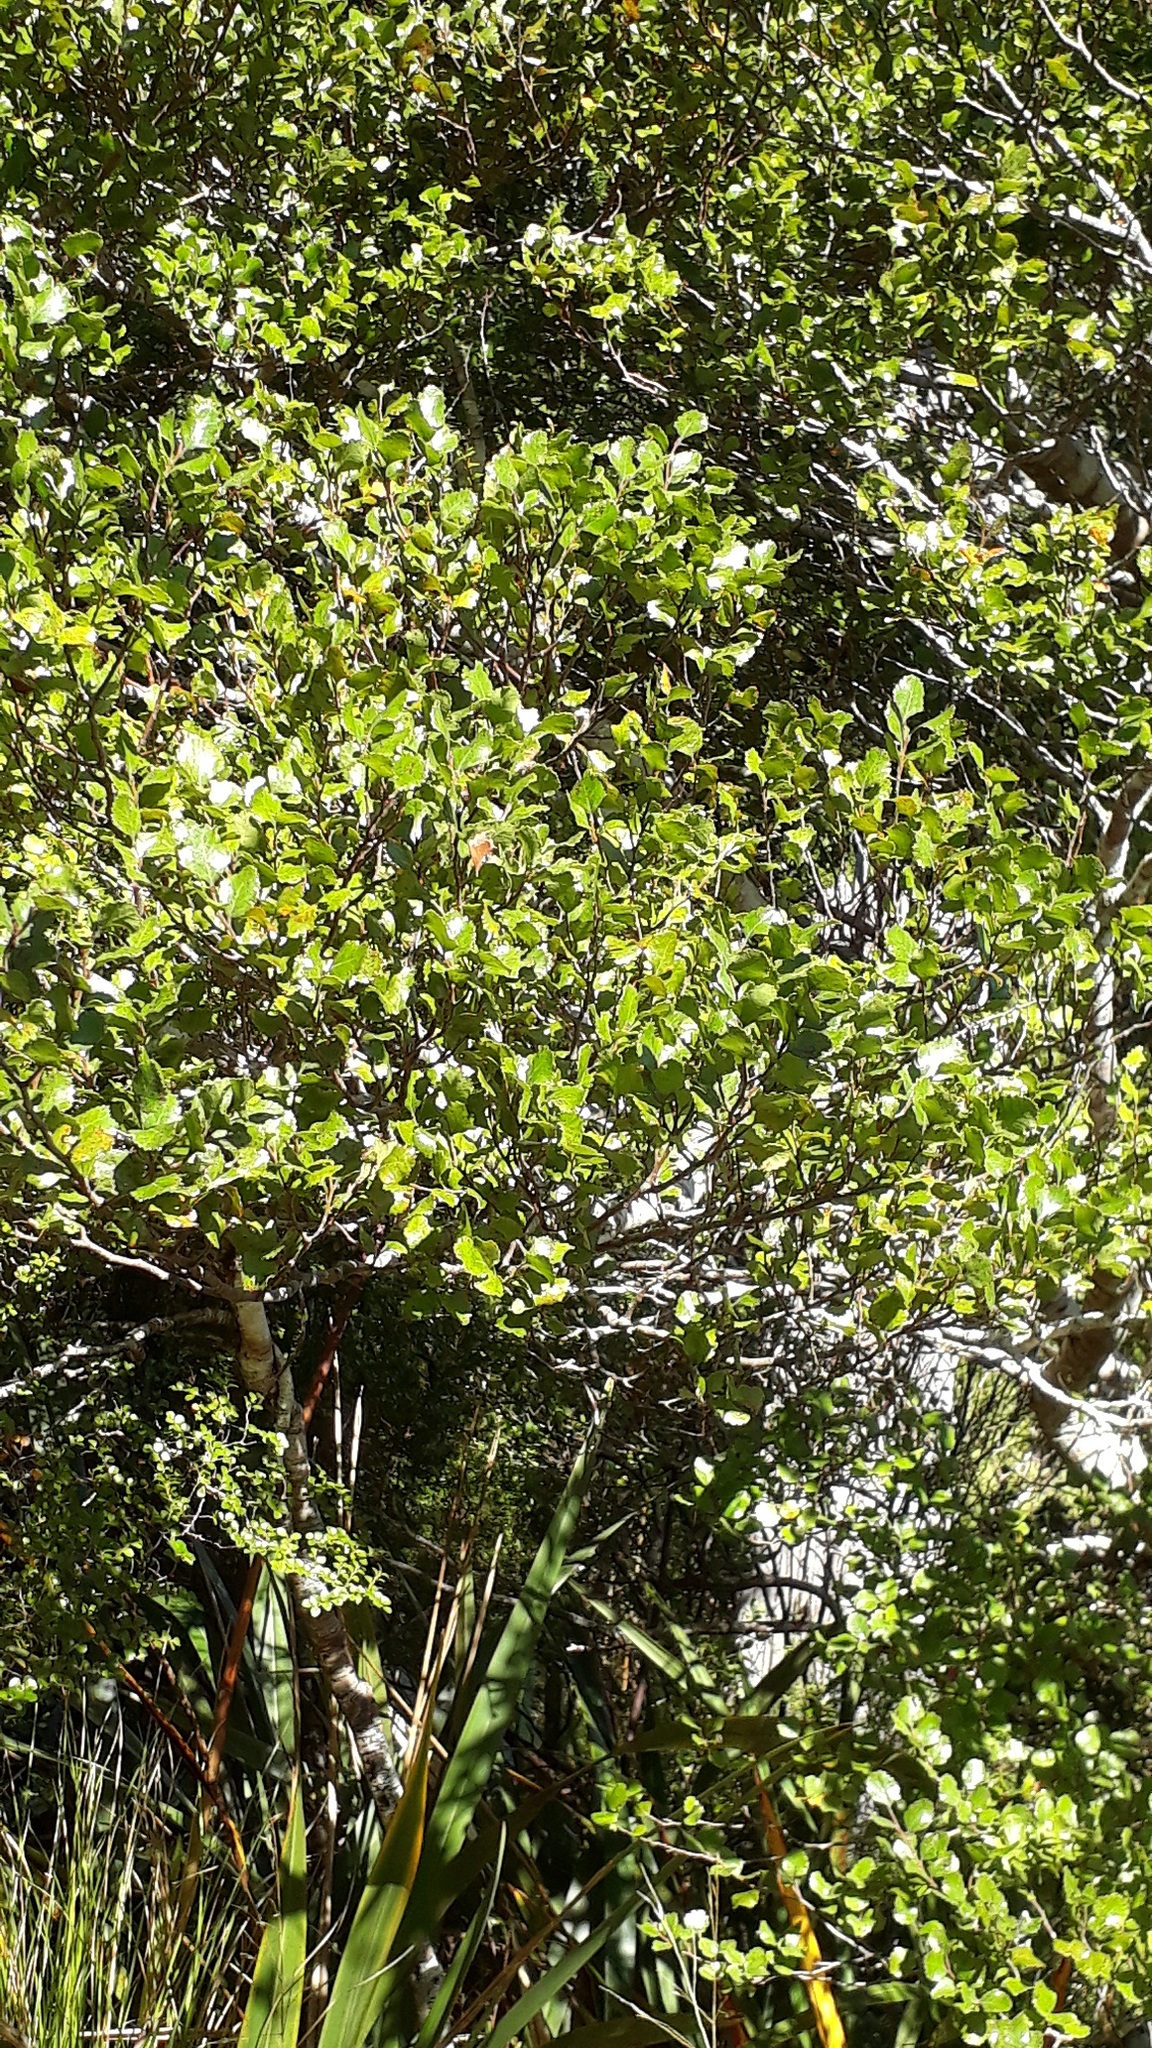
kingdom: Plantae
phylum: Tracheophyta
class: Magnoliopsida
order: Fagales
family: Nothofagaceae
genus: Nothofagus
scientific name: Nothofagus truncata
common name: Hard beech
